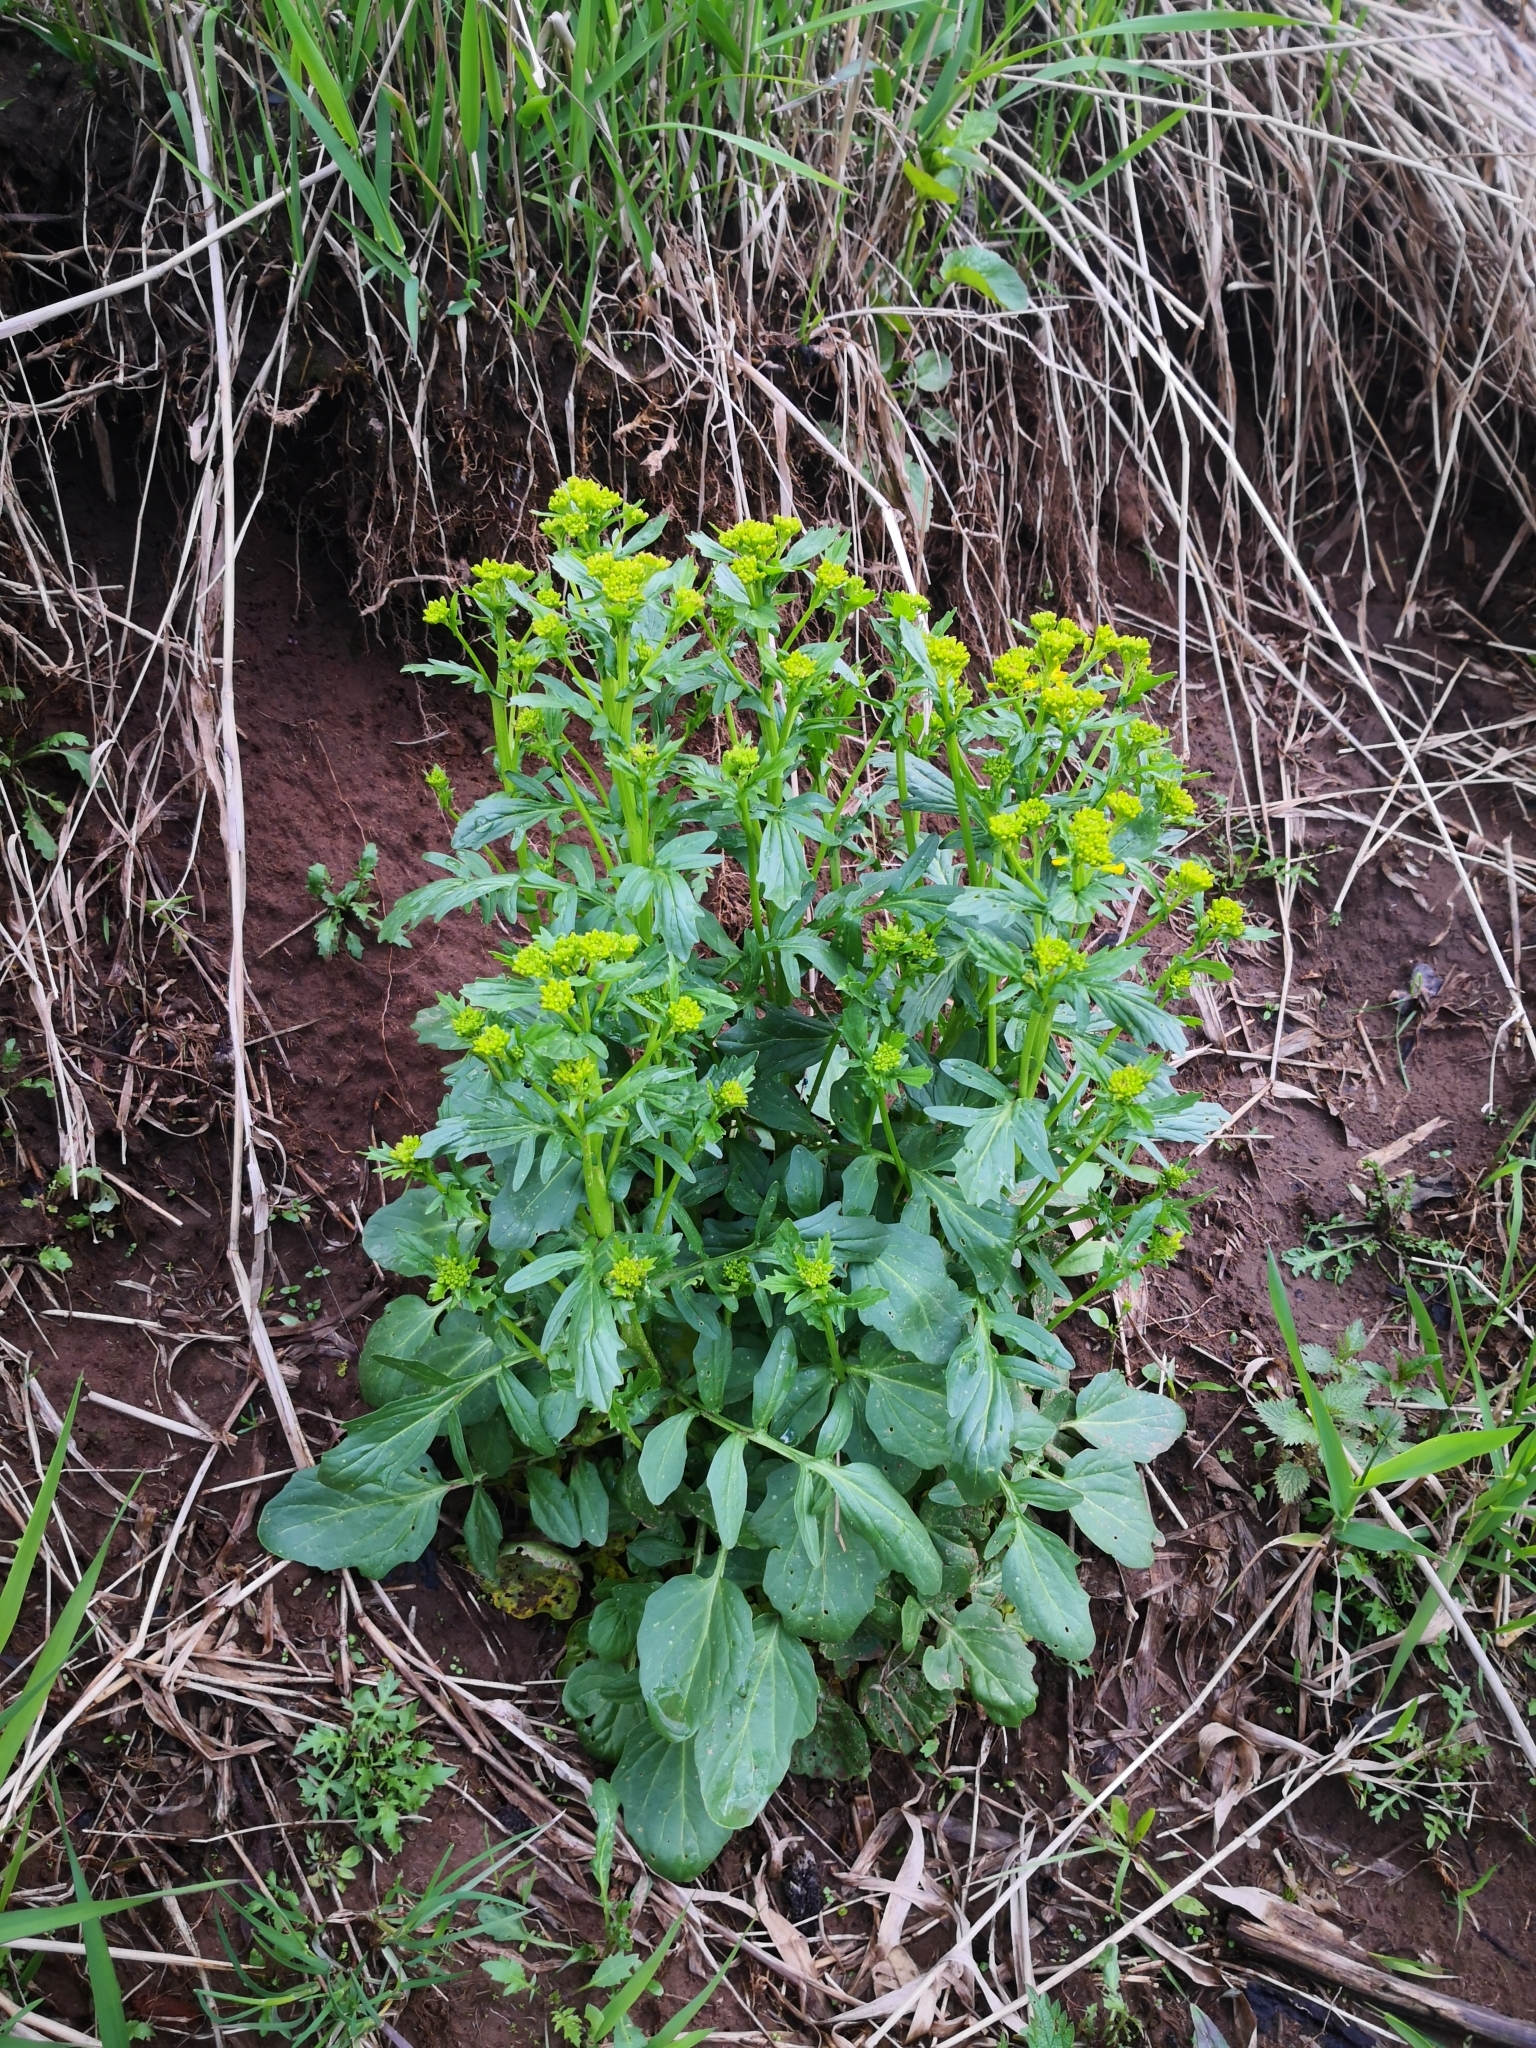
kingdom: Plantae
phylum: Tracheophyta
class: Magnoliopsida
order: Brassicales
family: Brassicaceae
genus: Barbarea
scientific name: Barbarea vulgaris
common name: Cressy-greens
